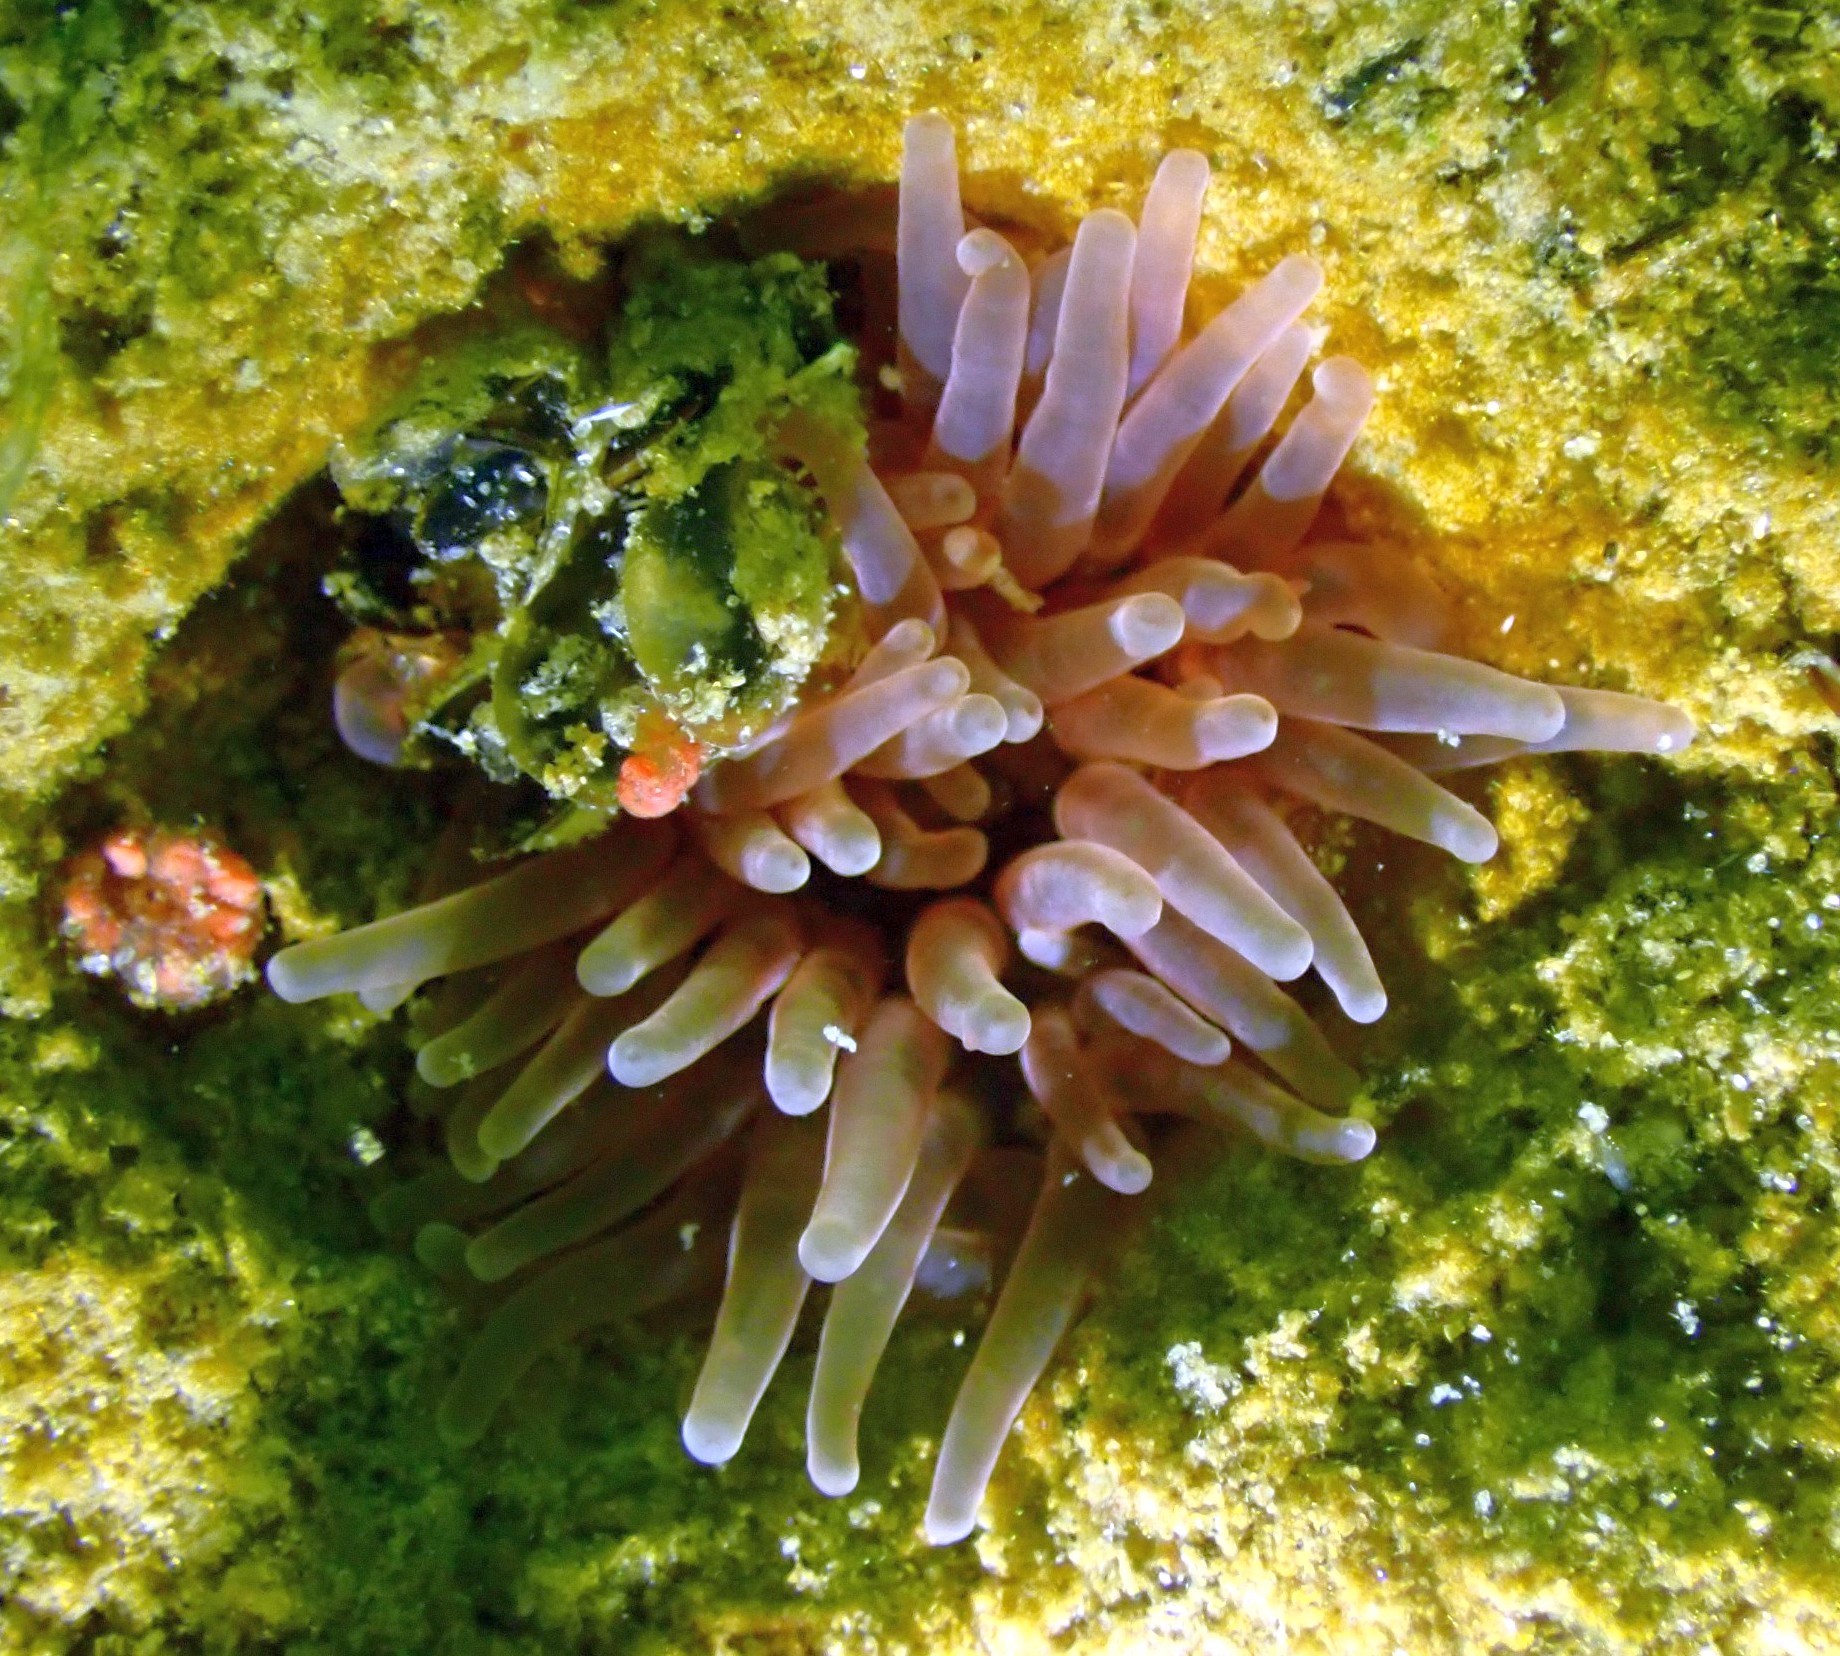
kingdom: Animalia
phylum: Cnidaria
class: Anthozoa
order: Actiniaria
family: Actiniidae
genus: Urticina
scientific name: Urticina felina
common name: Dahlia anemone
